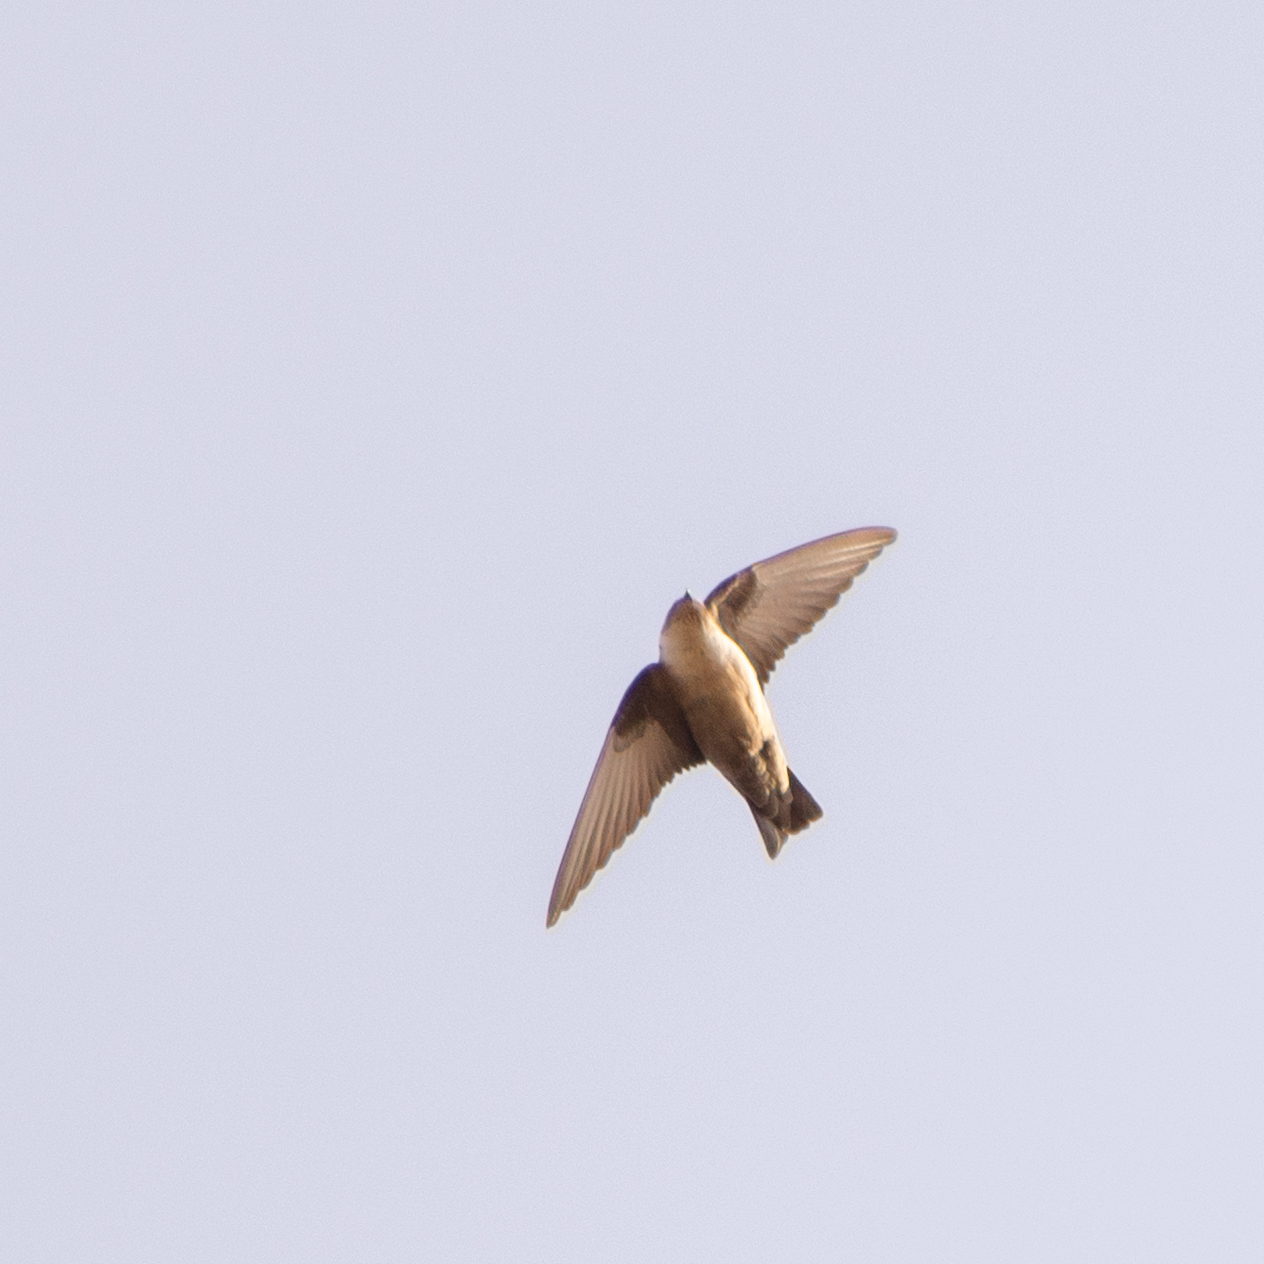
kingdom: Animalia
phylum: Chordata
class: Aves
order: Passeriformes
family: Hirundinidae
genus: Ptyonoprogne
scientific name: Ptyonoprogne rupestris
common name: Eurasian crag martin
